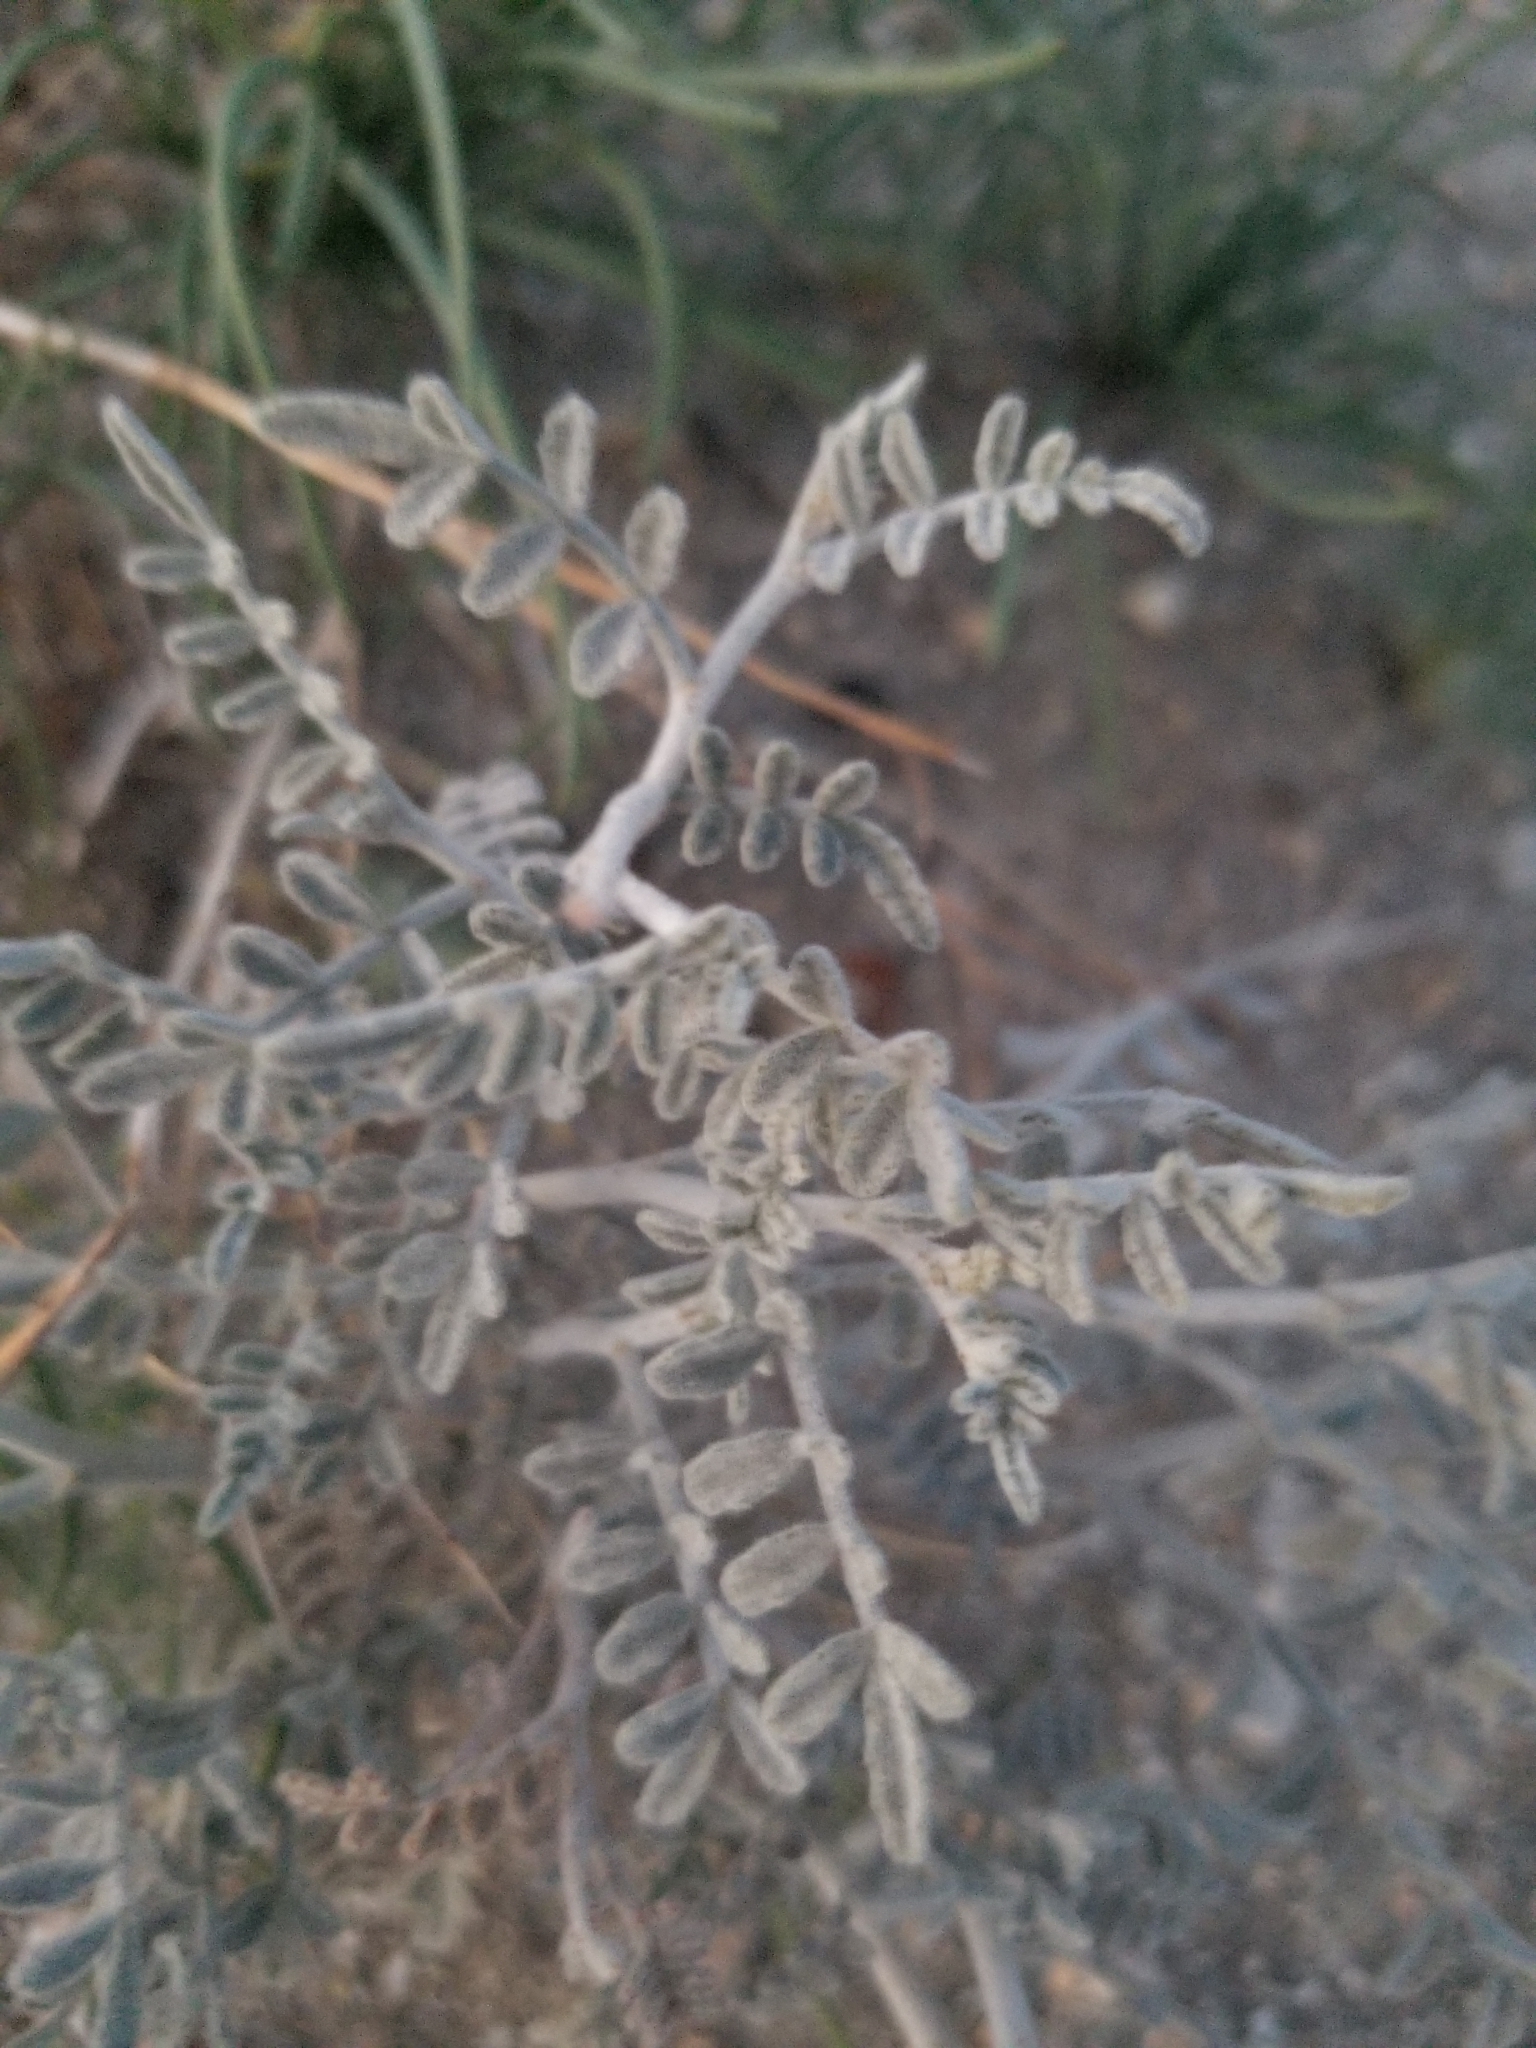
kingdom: Plantae
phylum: Tracheophyta
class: Magnoliopsida
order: Fabales
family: Fabaceae
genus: Psorothamnus
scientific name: Psorothamnus emoryi
